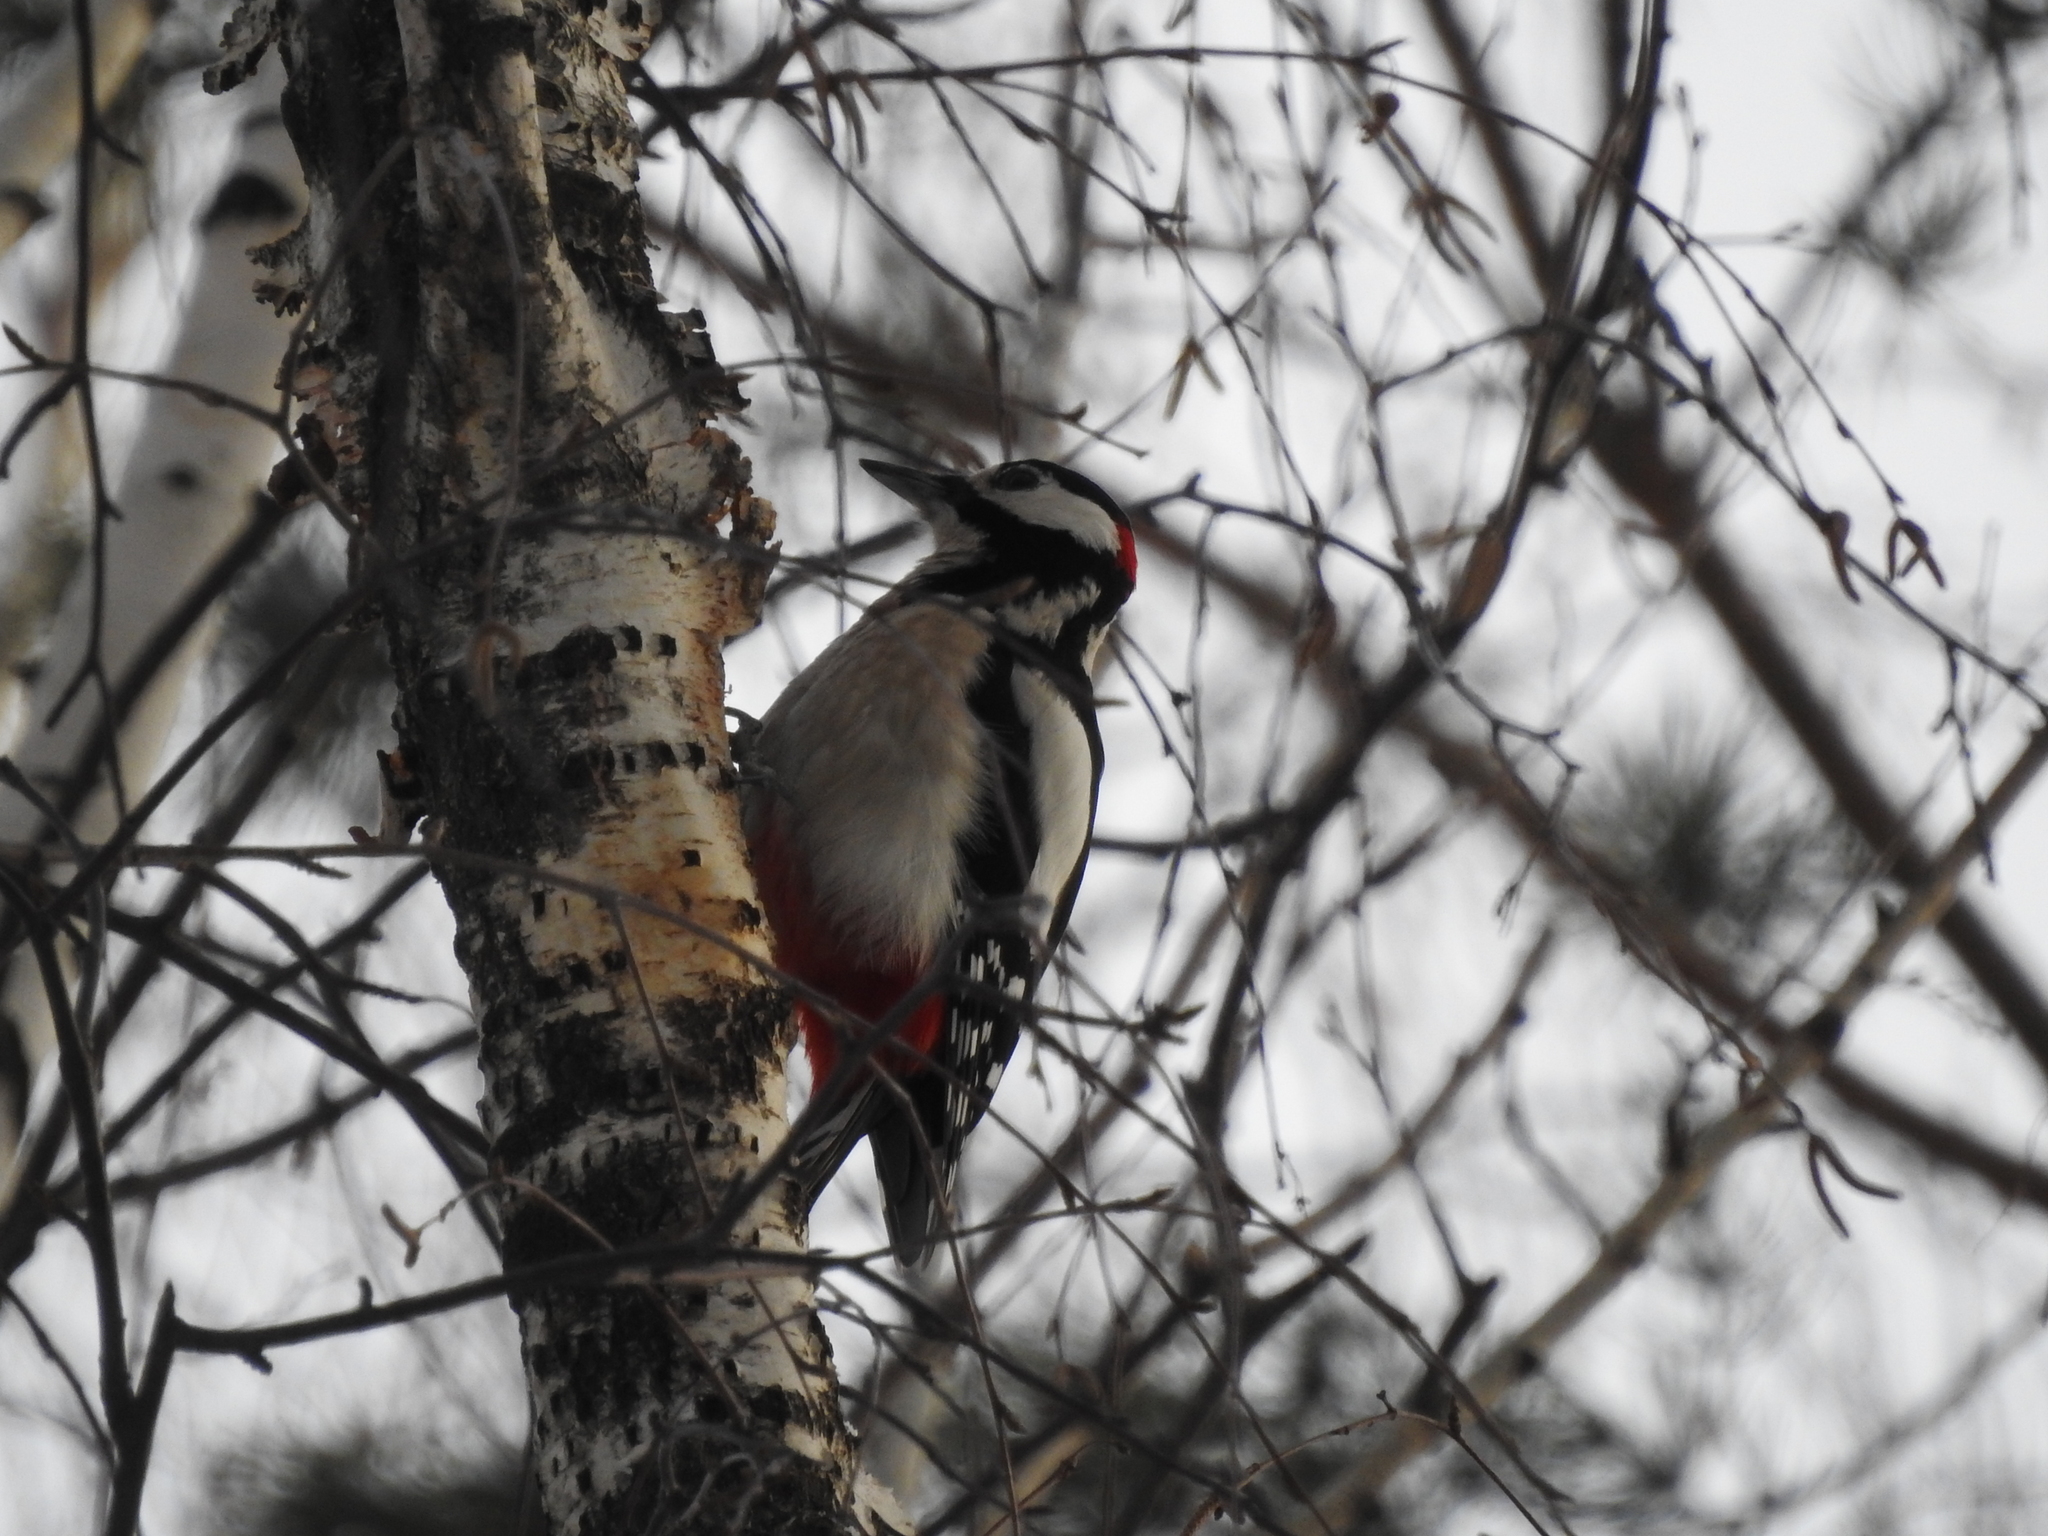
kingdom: Animalia
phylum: Chordata
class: Aves
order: Piciformes
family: Picidae
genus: Dendrocopos
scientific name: Dendrocopos major
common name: Great spotted woodpecker
